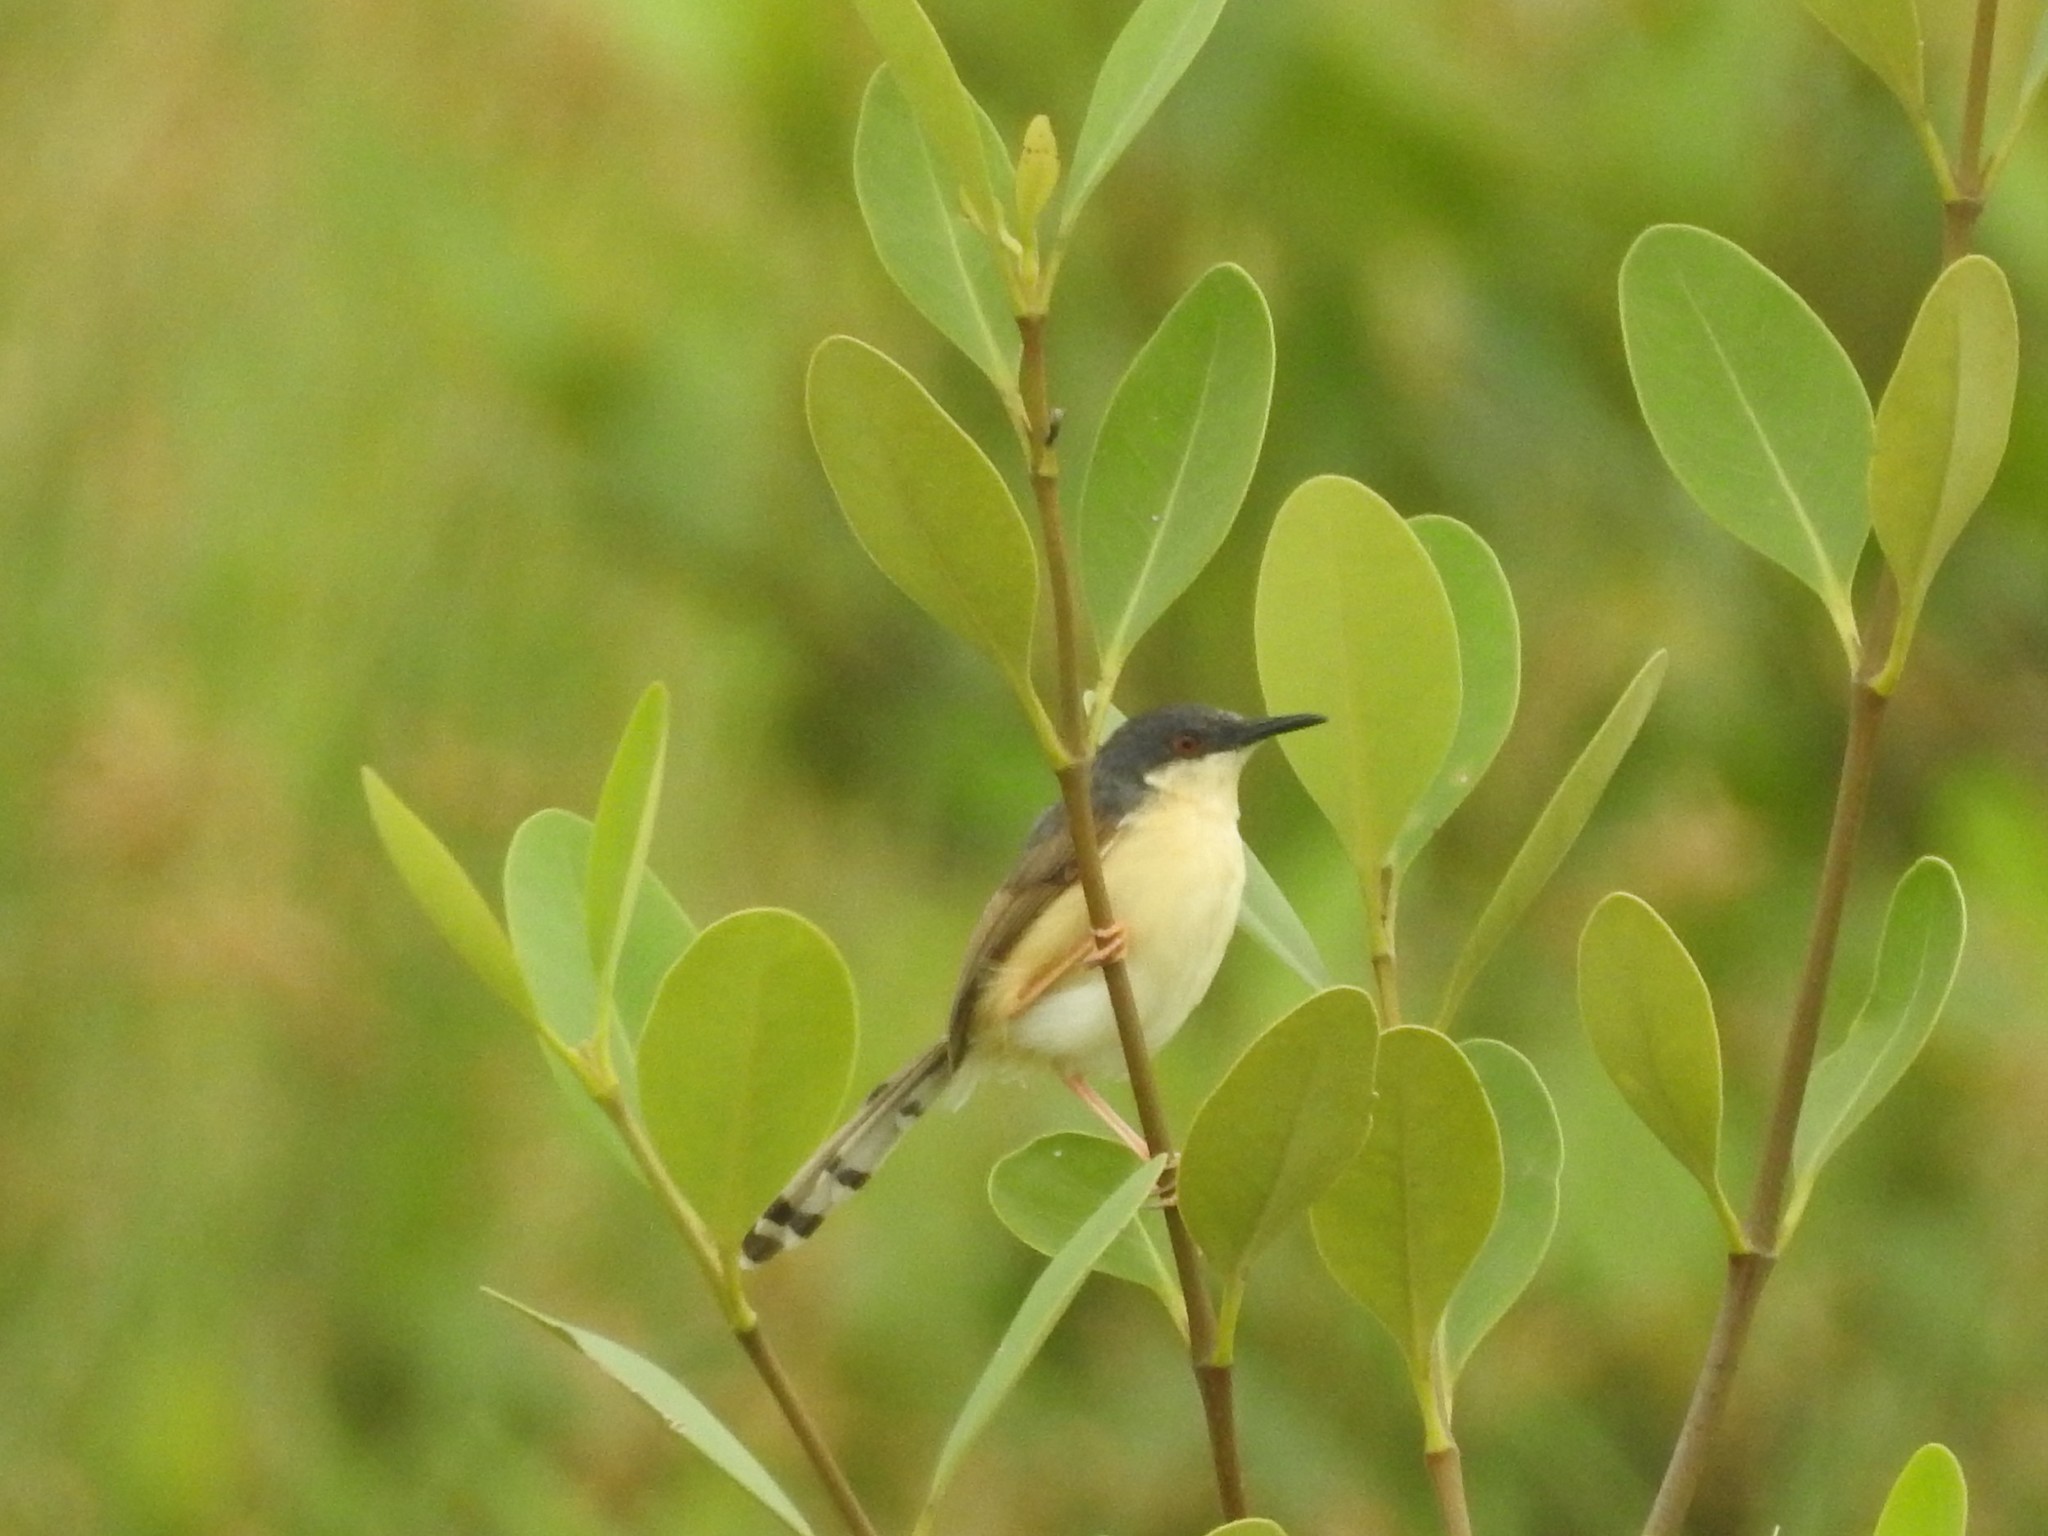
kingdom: Animalia
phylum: Chordata
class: Aves
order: Passeriformes
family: Cisticolidae
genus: Prinia
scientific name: Prinia socialis
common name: Ashy prinia
